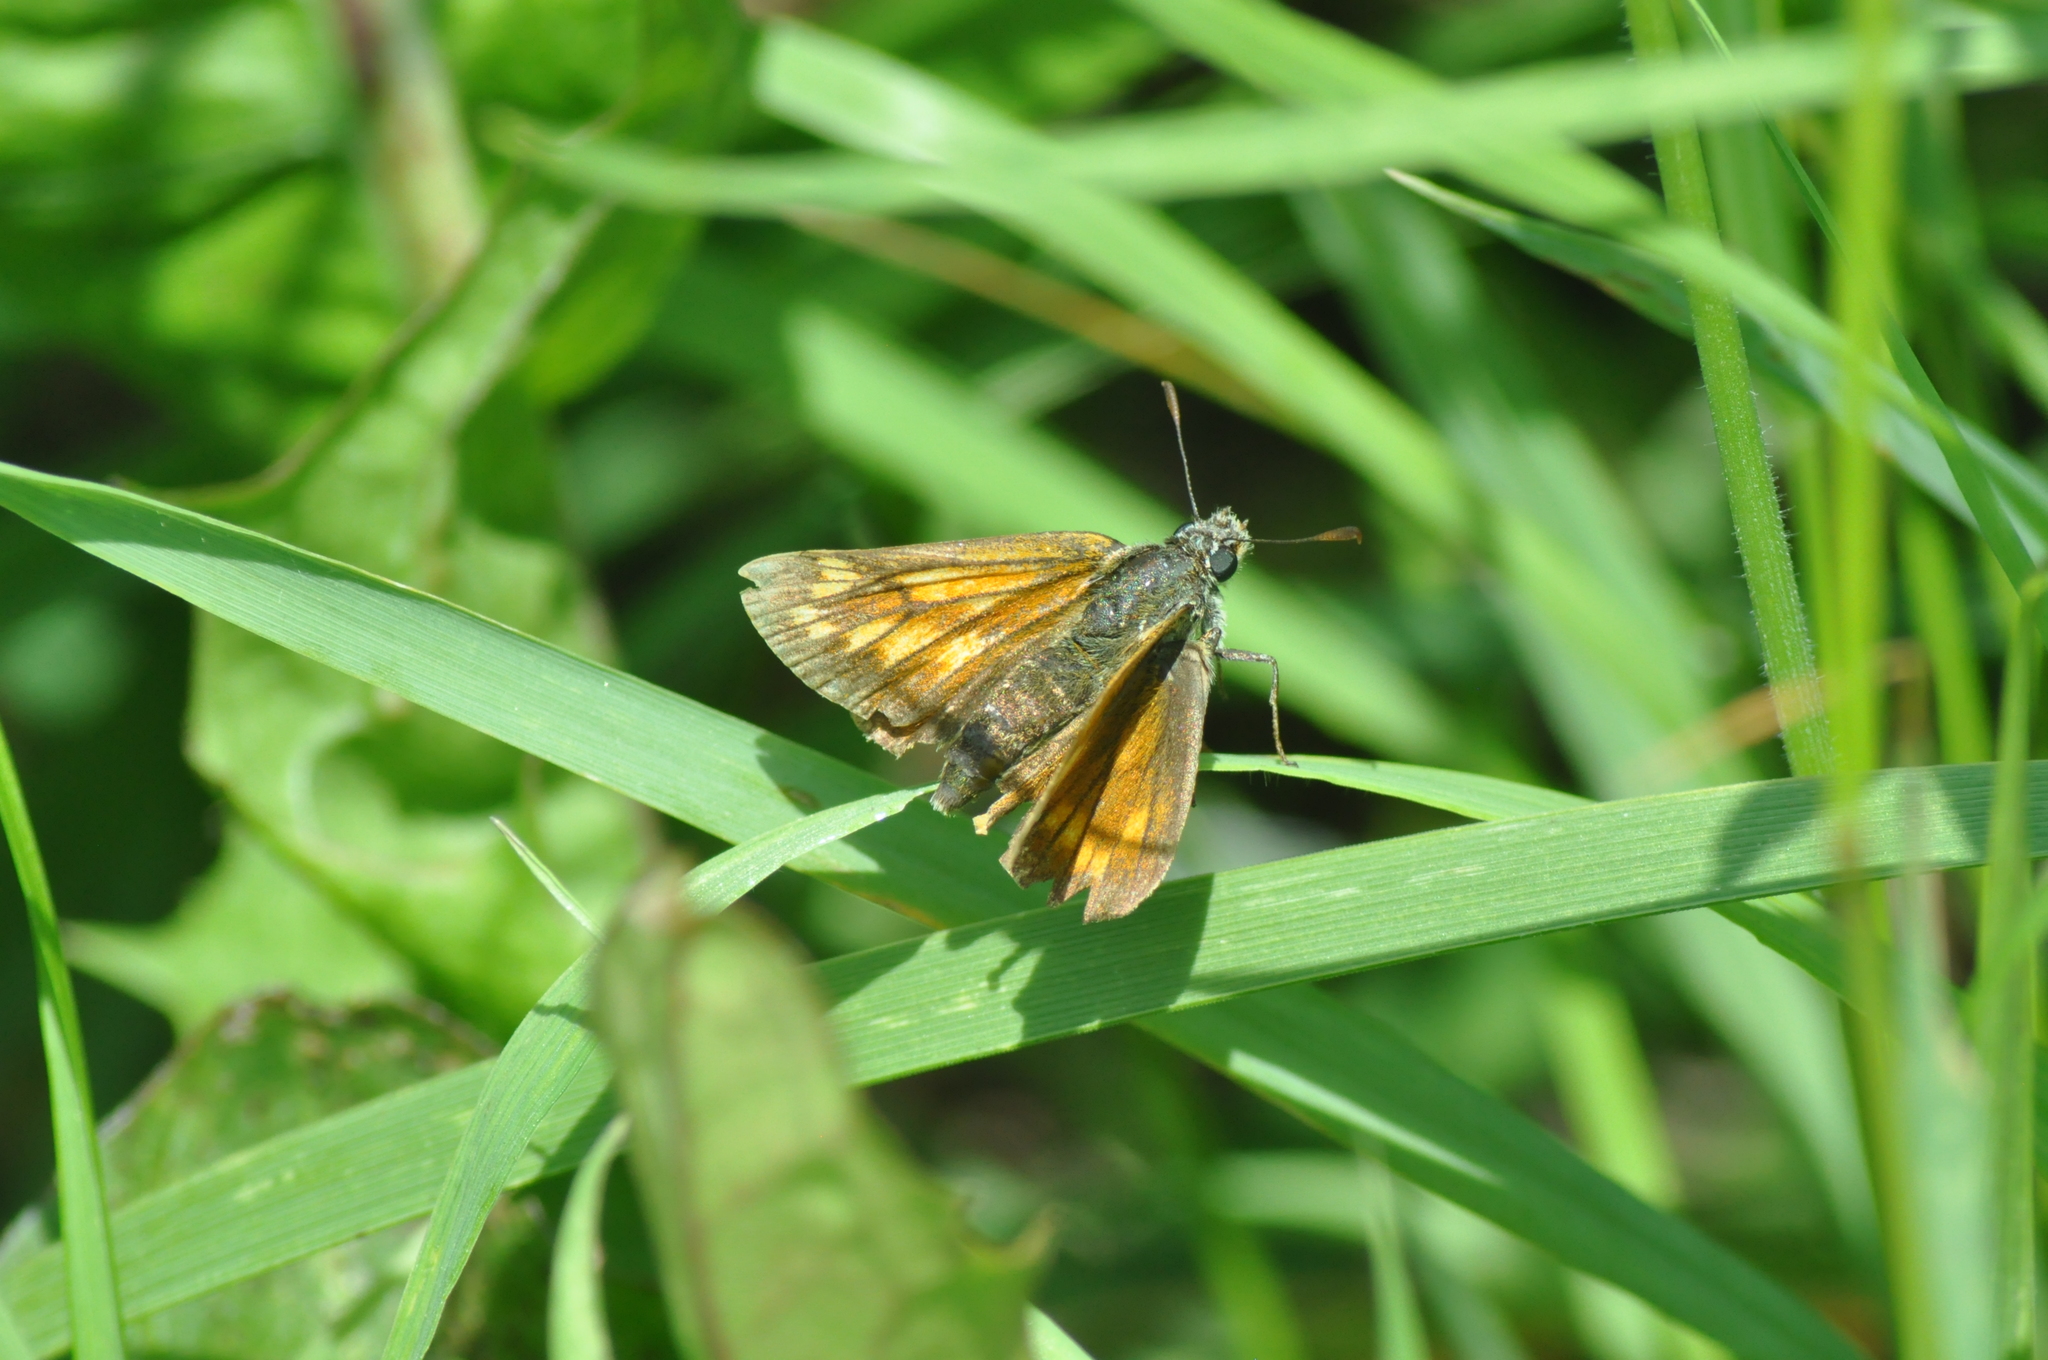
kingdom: Animalia
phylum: Arthropoda
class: Insecta
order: Lepidoptera
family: Hesperiidae
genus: Ochlodes
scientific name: Ochlodes venata
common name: Large skipper
